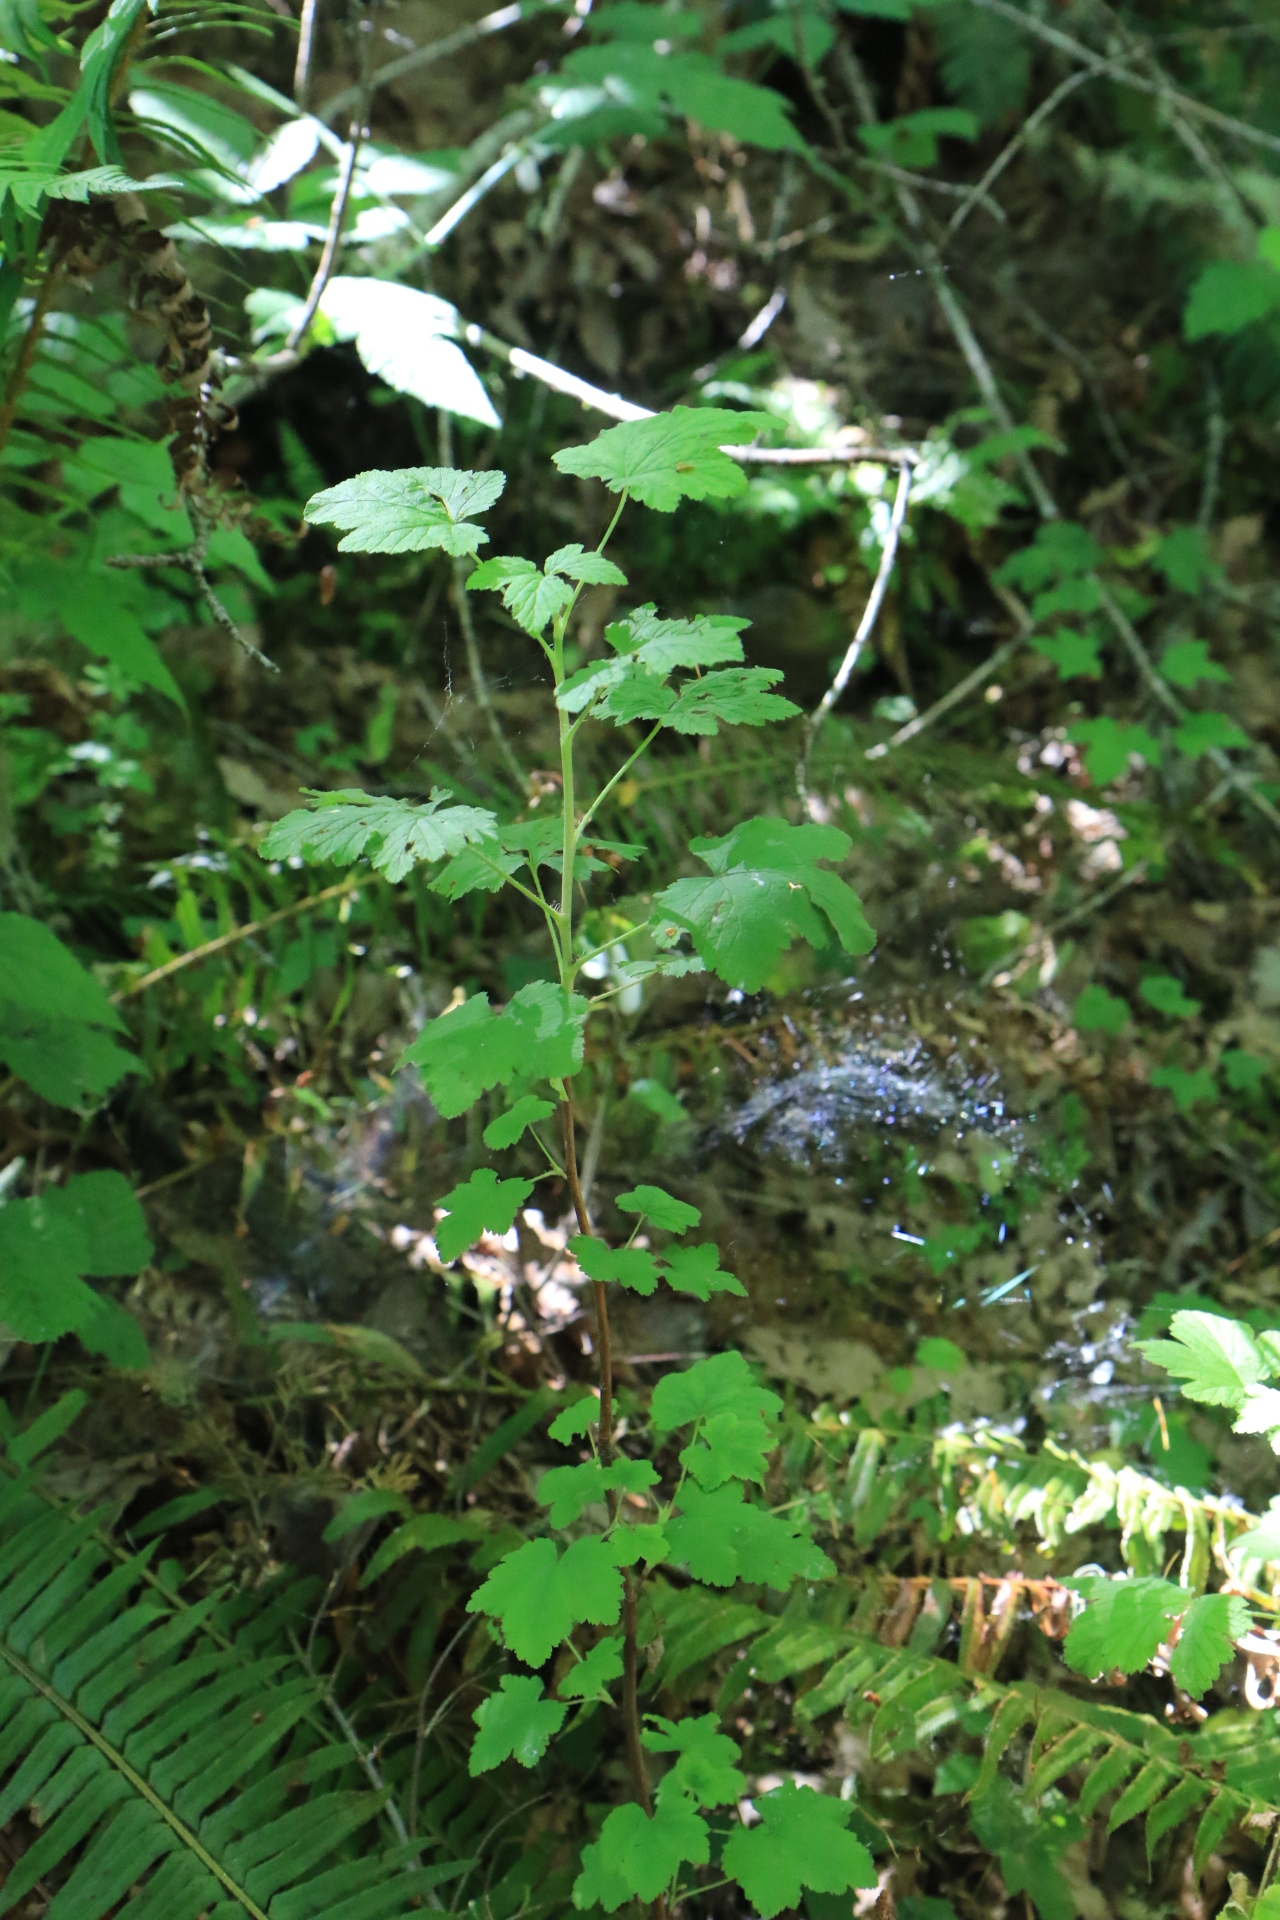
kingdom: Plantae
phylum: Tracheophyta
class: Magnoliopsida
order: Saxifragales
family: Grossulariaceae
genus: Ribes
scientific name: Ribes sanguineum
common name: Flowering currant
